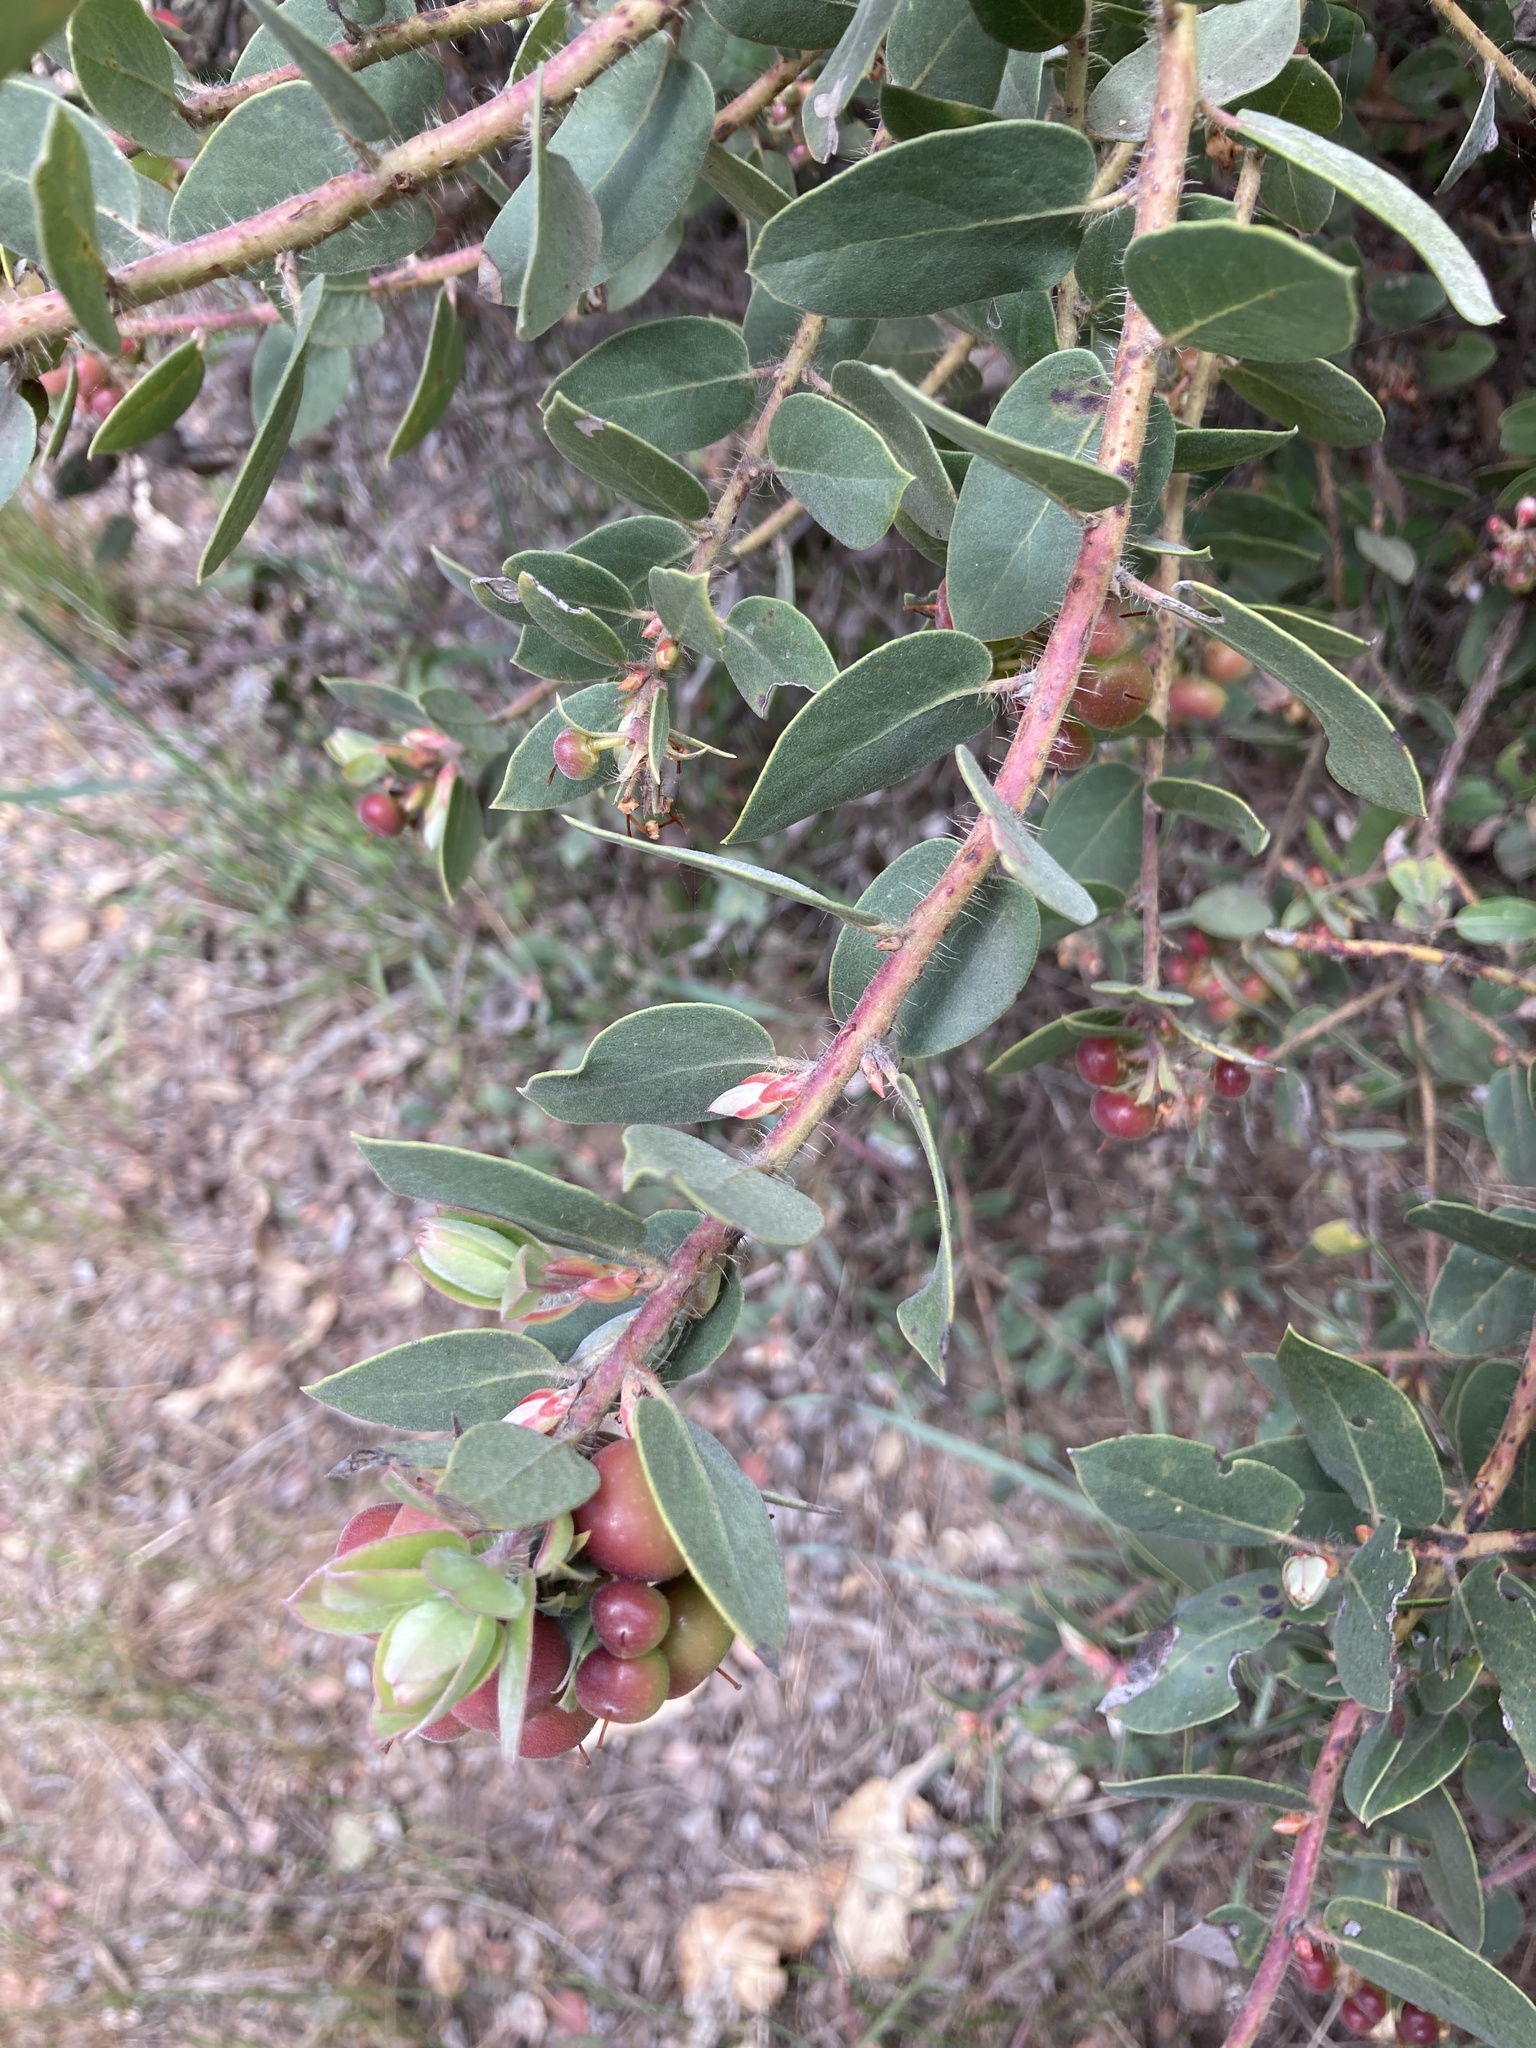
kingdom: Plantae
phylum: Tracheophyta
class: Magnoliopsida
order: Ericales
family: Ericaceae
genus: Arctostaphylos
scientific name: Arctostaphylos morroensis
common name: Morro manzanita
